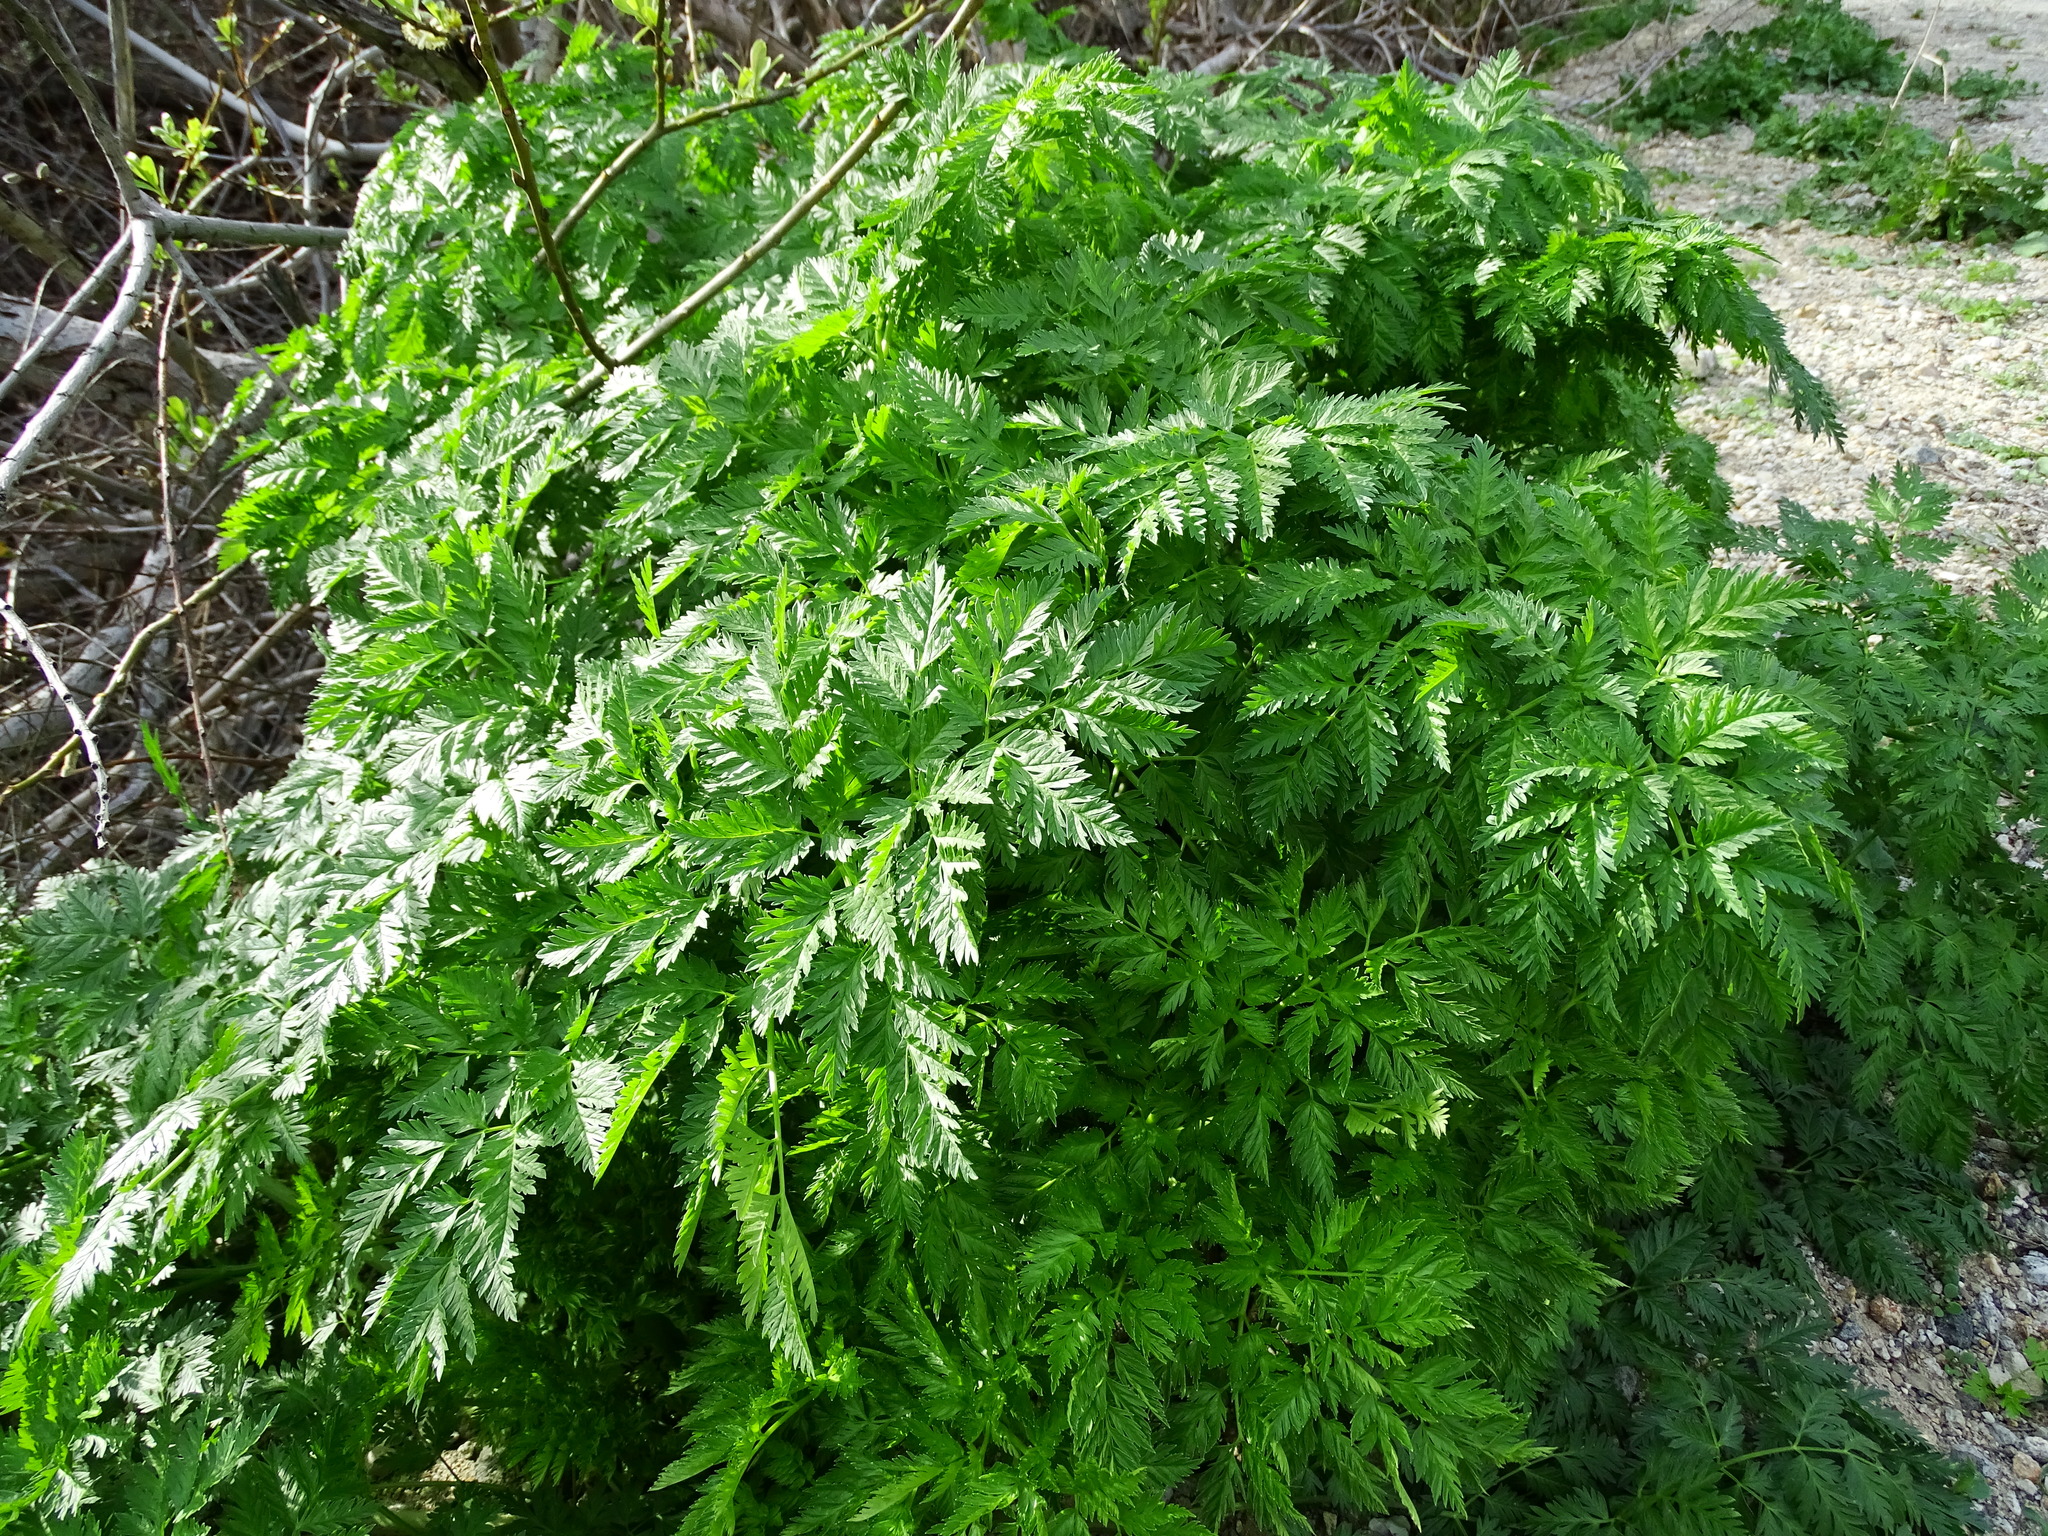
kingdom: Plantae
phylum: Tracheophyta
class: Magnoliopsida
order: Apiales
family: Apiaceae
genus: Conium
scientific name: Conium maculatum
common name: Hemlock
